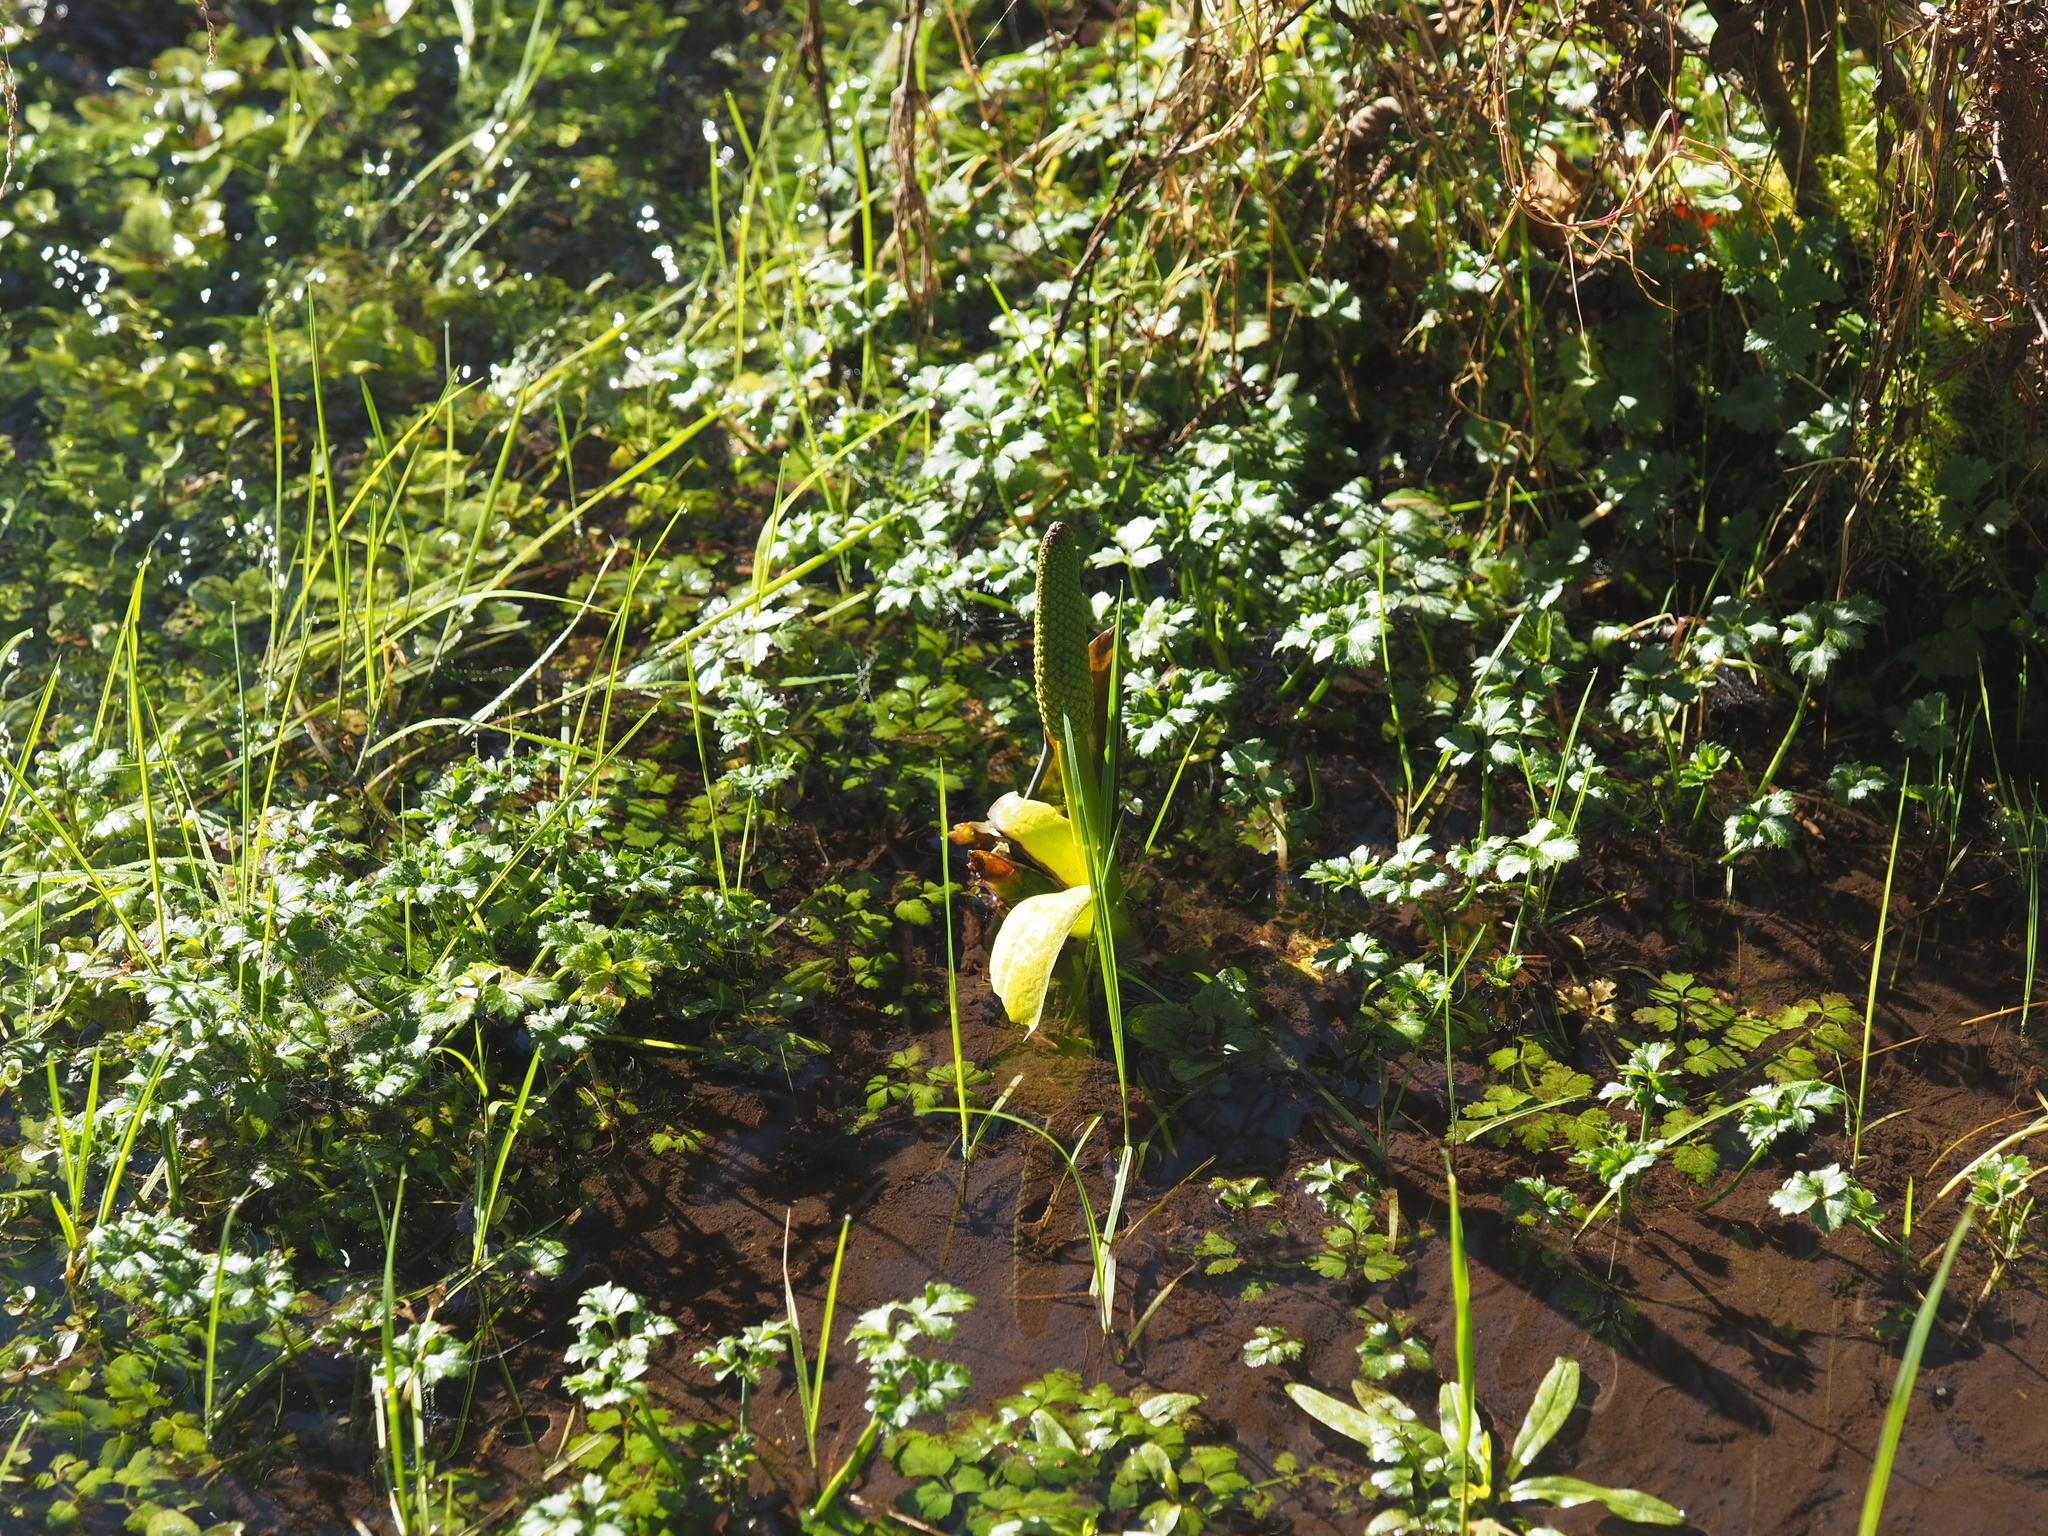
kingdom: Plantae
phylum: Tracheophyta
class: Liliopsida
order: Alismatales
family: Araceae
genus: Lysichiton
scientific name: Lysichiton americanus
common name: American skunk cabbage
